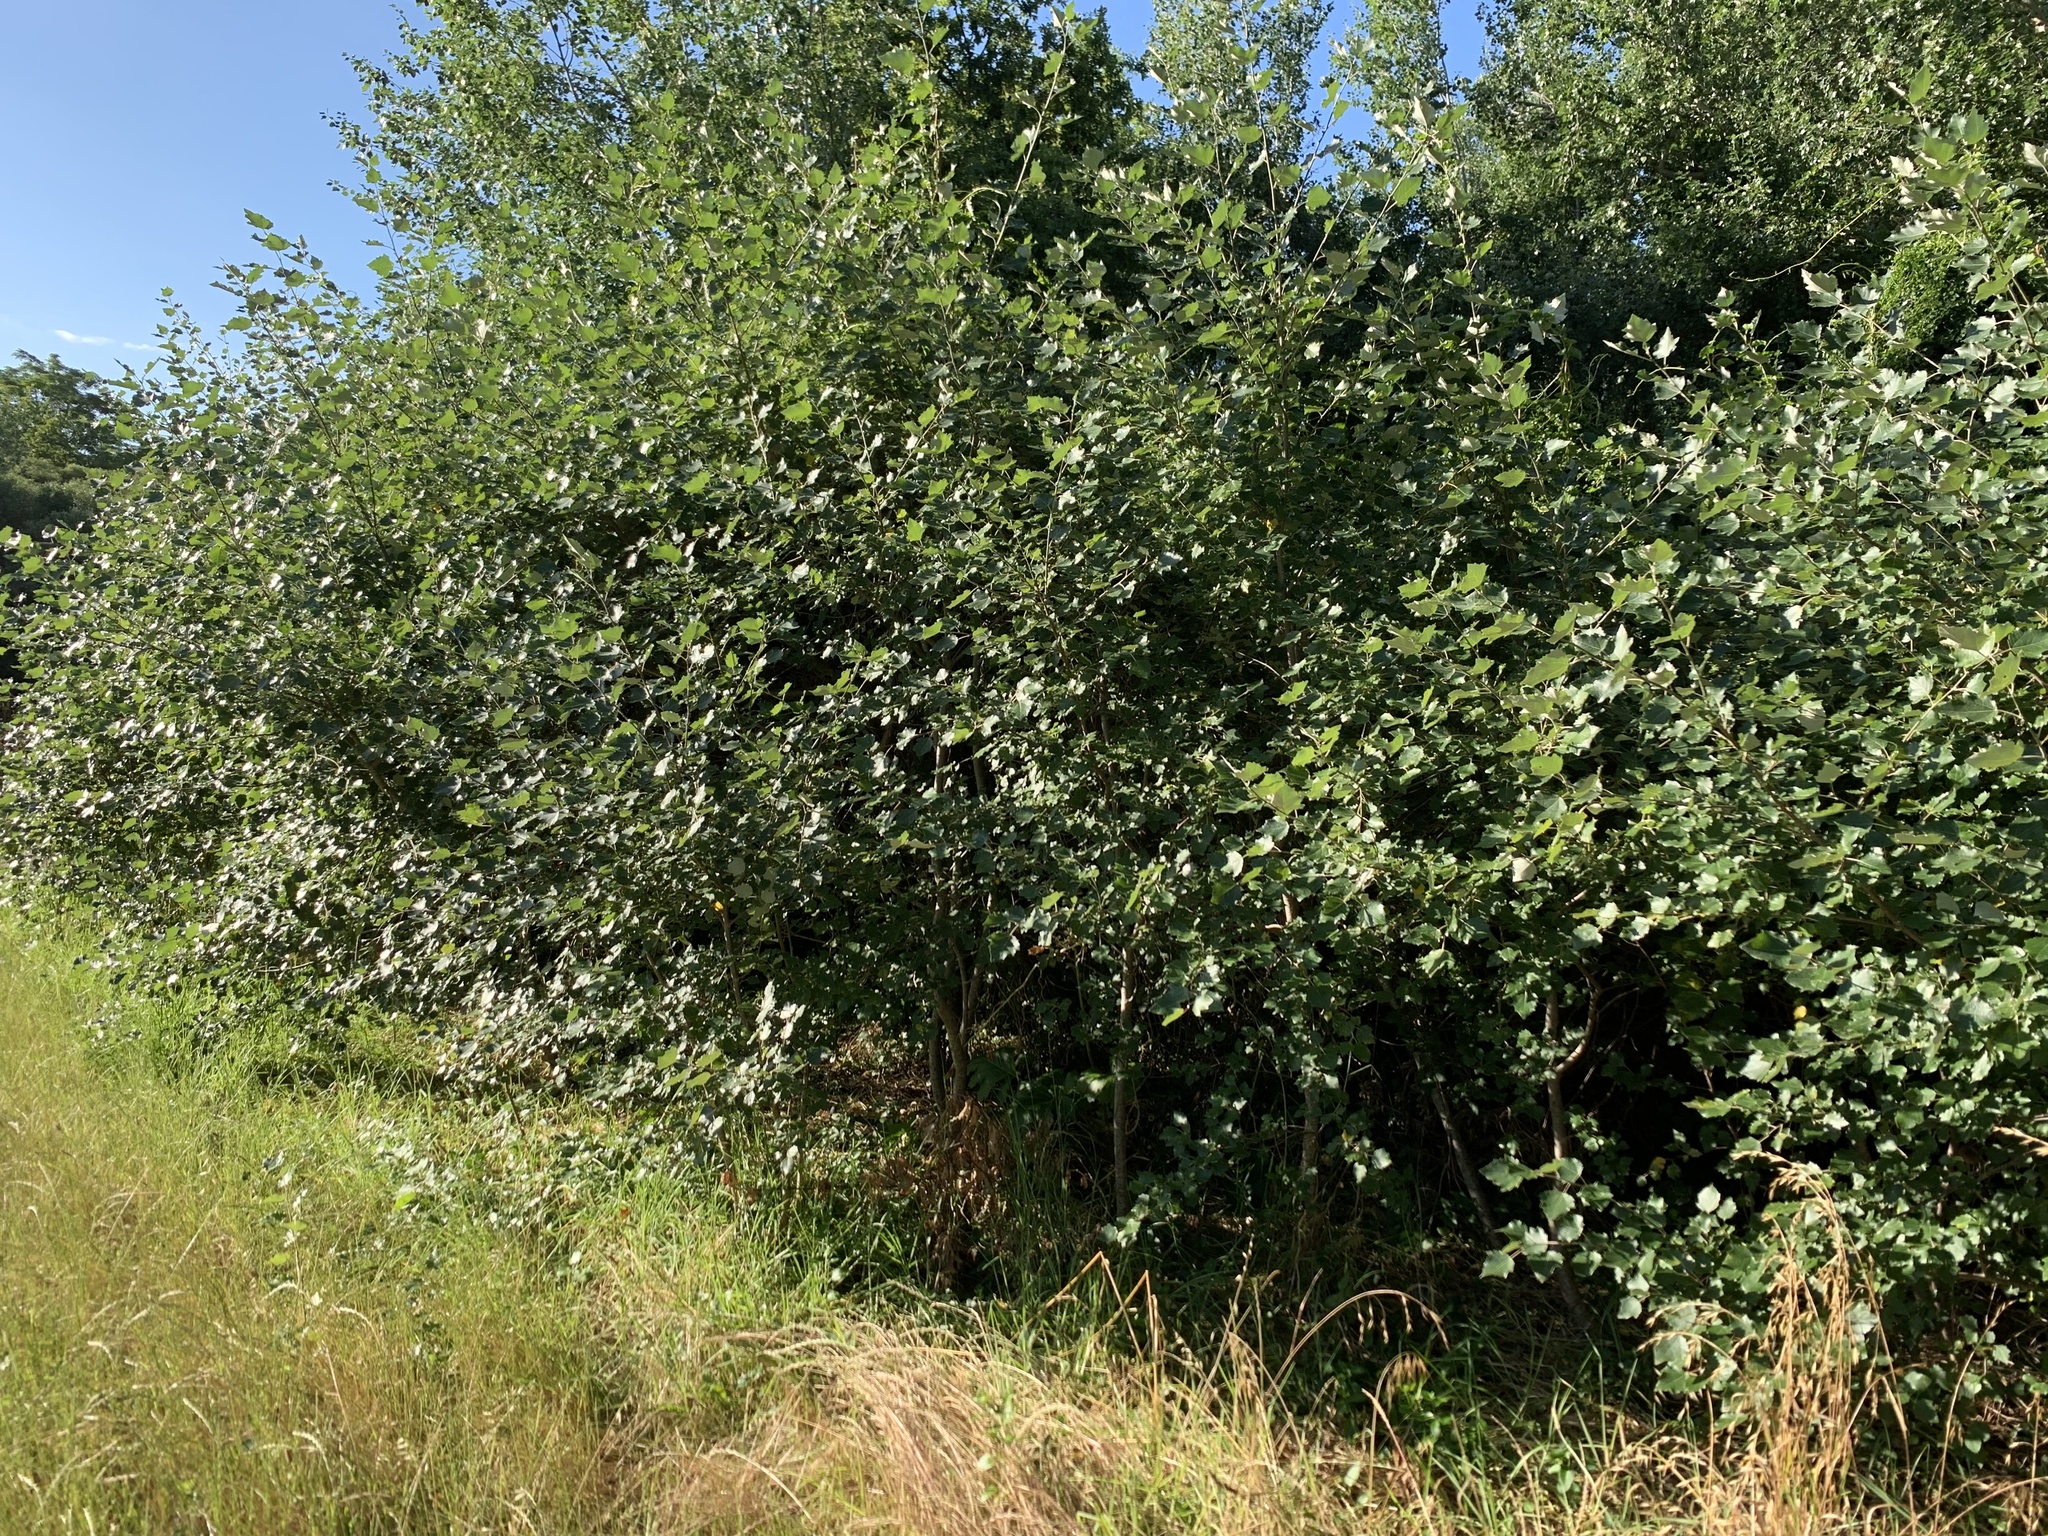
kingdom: Plantae
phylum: Tracheophyta
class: Magnoliopsida
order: Malpighiales
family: Salicaceae
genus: Populus
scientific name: Populus canescens
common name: Gray poplar
